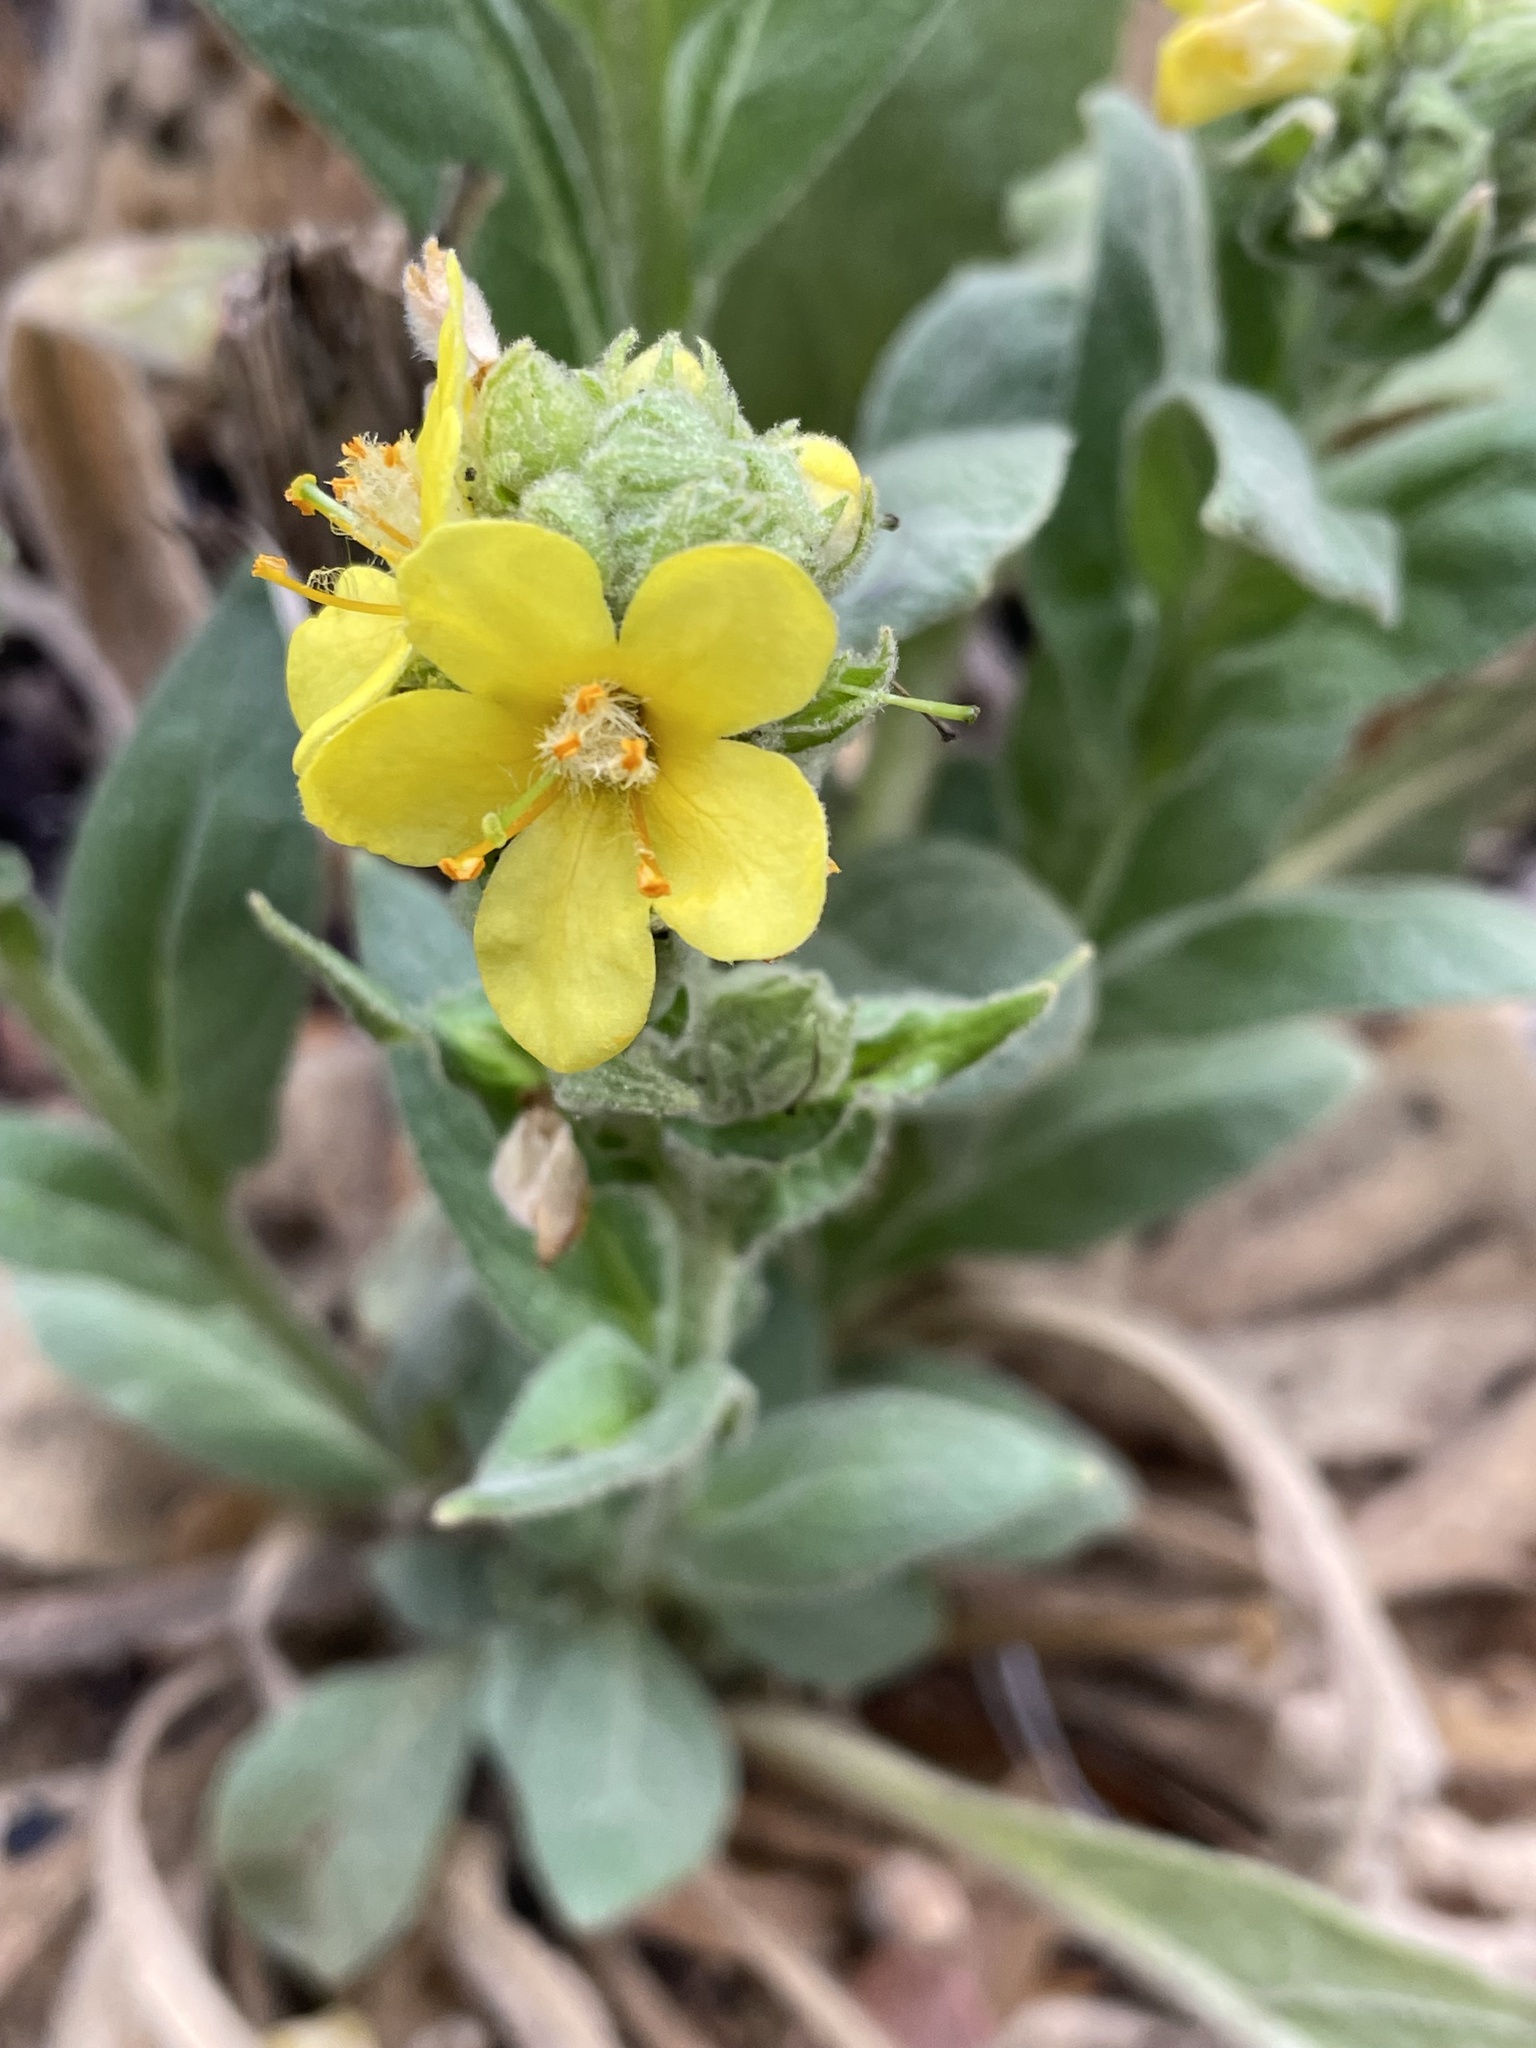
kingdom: Plantae
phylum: Tracheophyta
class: Magnoliopsida
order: Lamiales
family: Scrophulariaceae
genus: Verbascum
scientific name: Verbascum thapsus
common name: Common mullein
